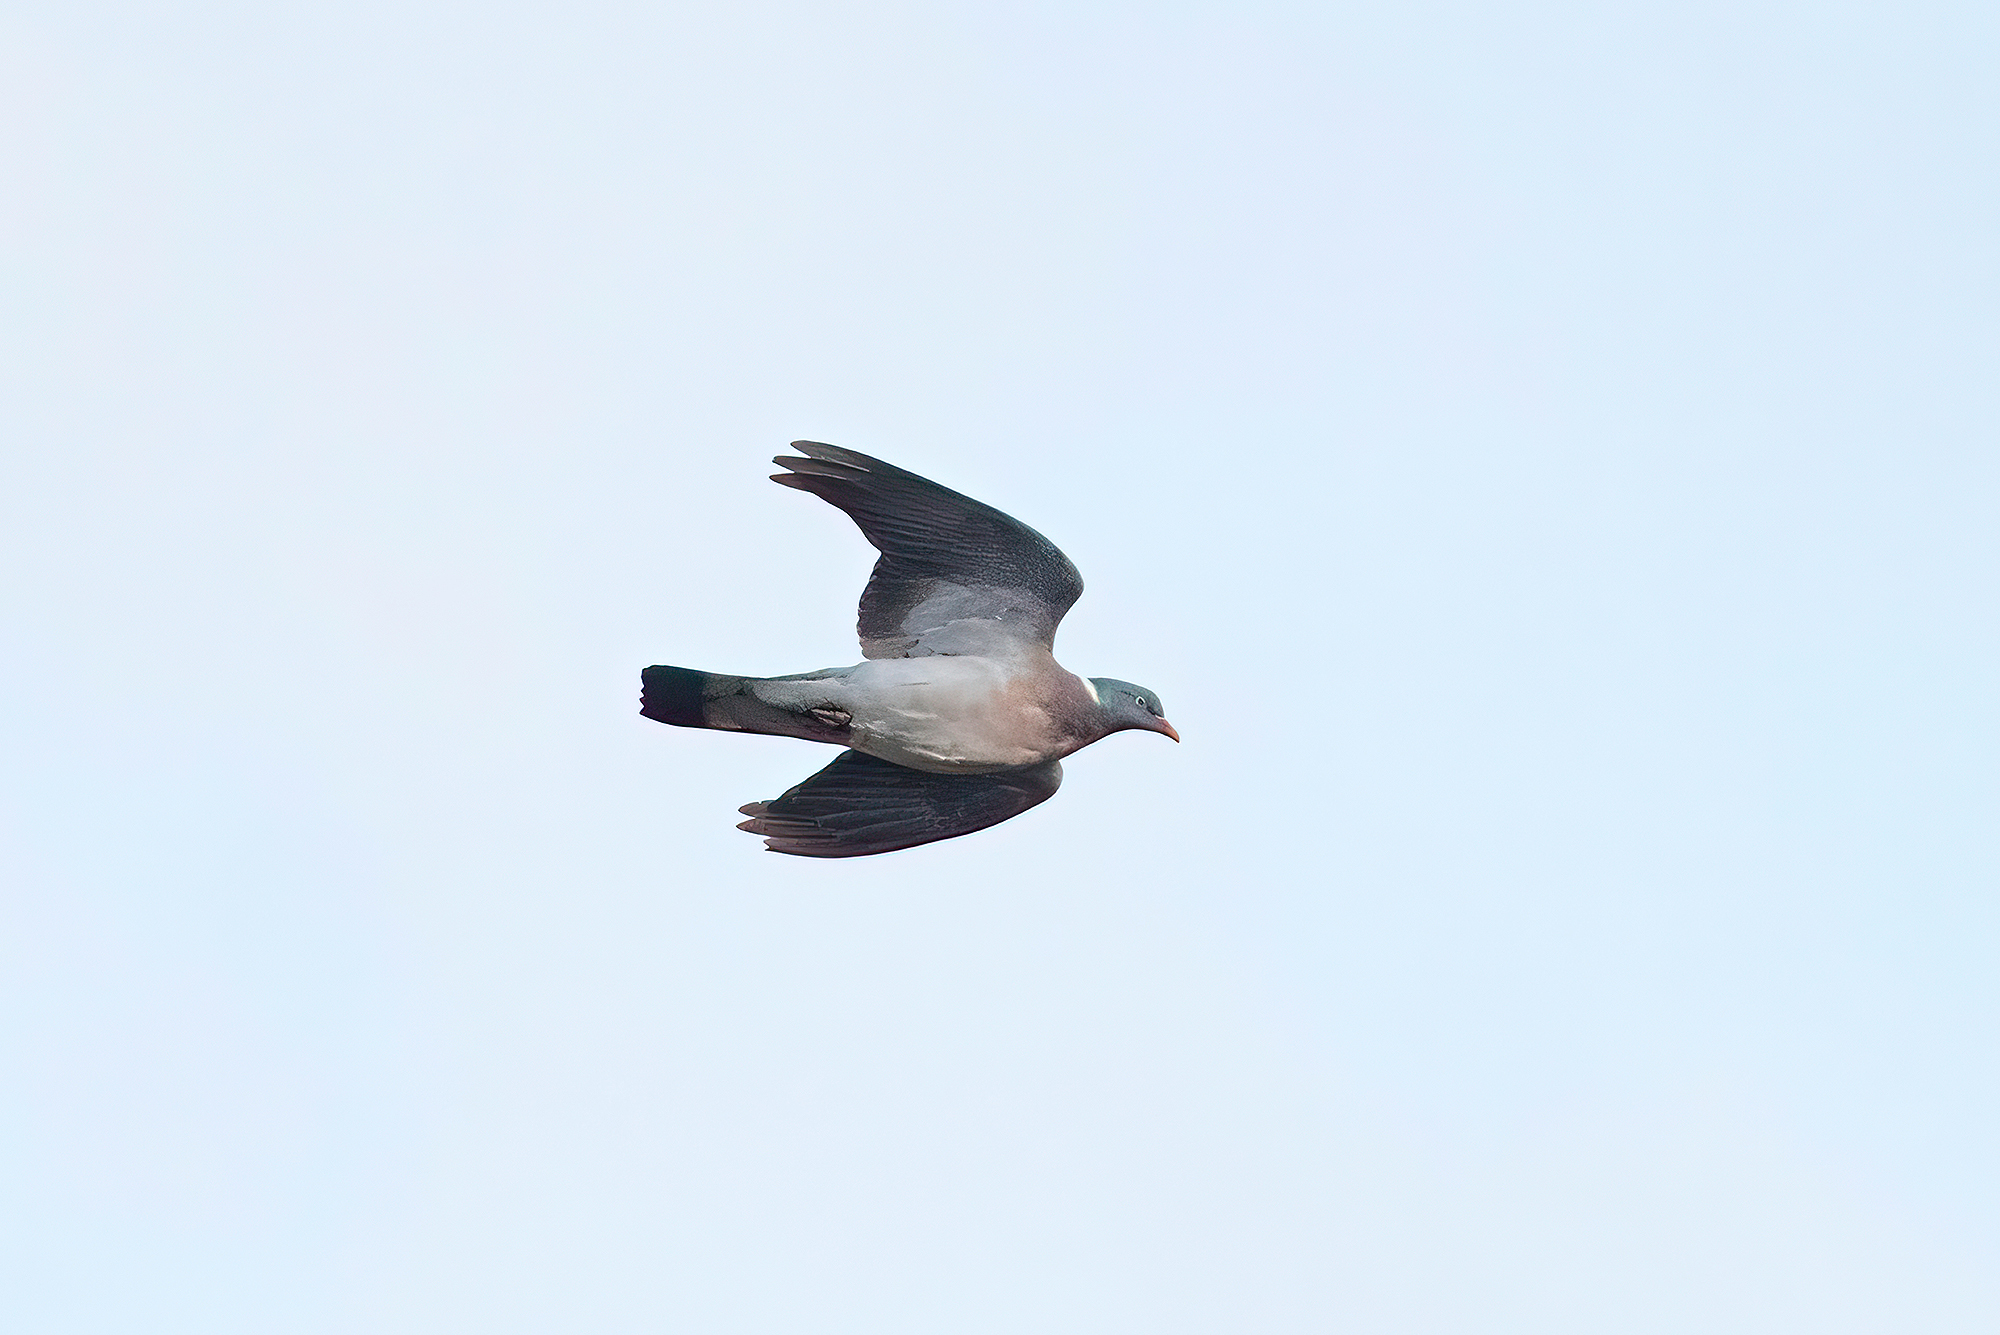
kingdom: Animalia
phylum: Chordata
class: Aves
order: Columbiformes
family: Columbidae
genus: Columba
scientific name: Columba palumbus
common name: Common wood pigeon
